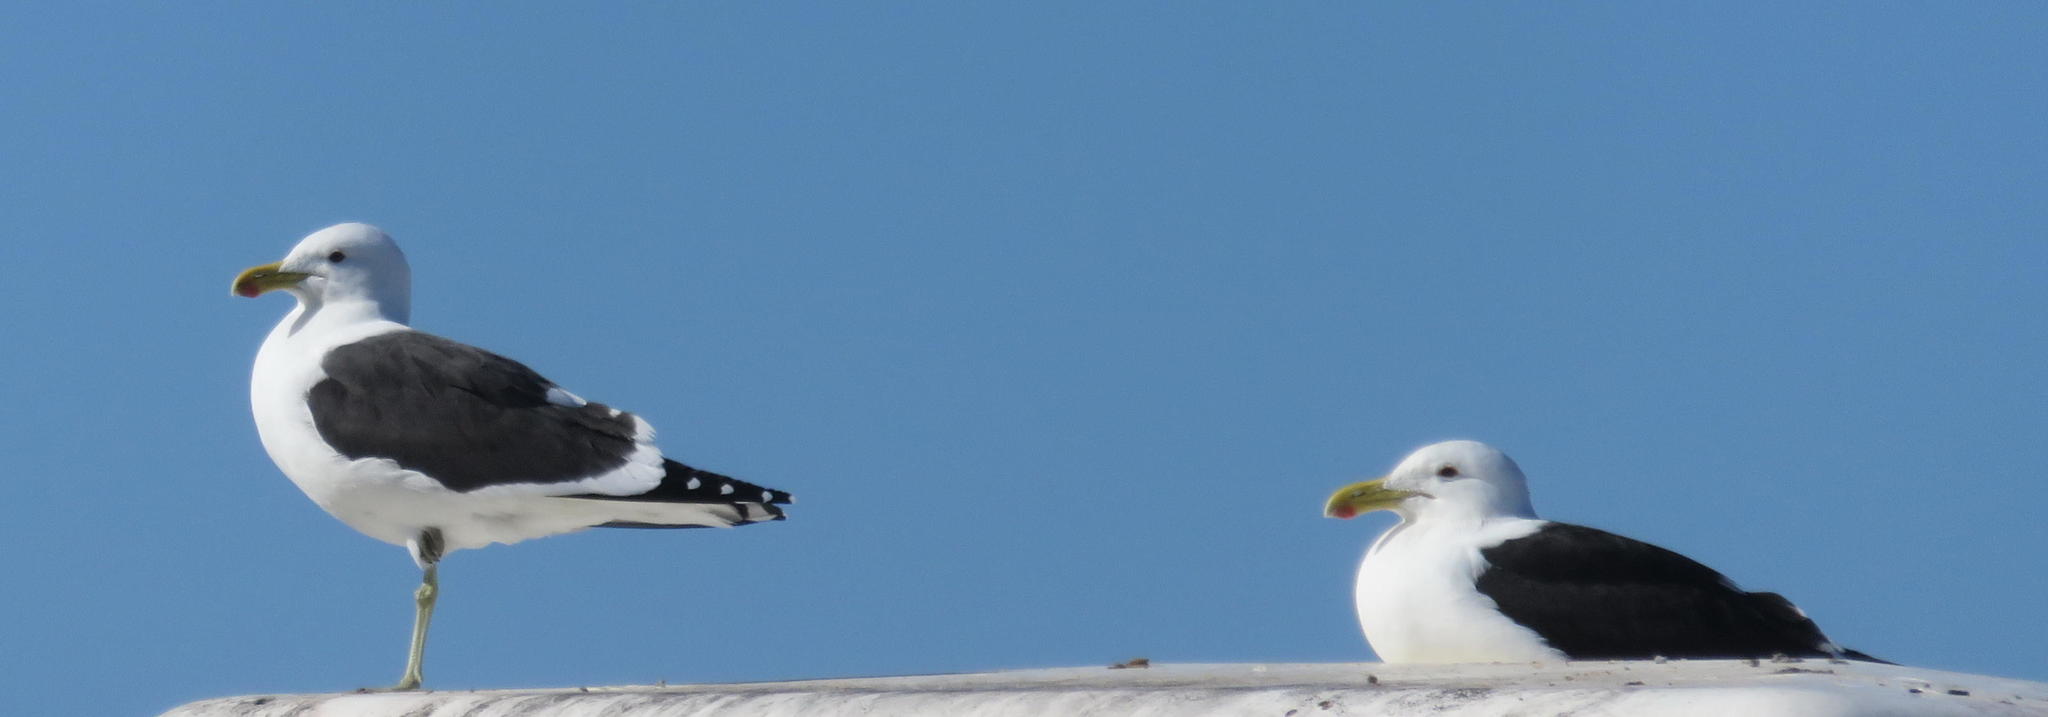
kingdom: Animalia
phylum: Chordata
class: Aves
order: Charadriiformes
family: Laridae
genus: Larus
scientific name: Larus dominicanus
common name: Kelp gull
